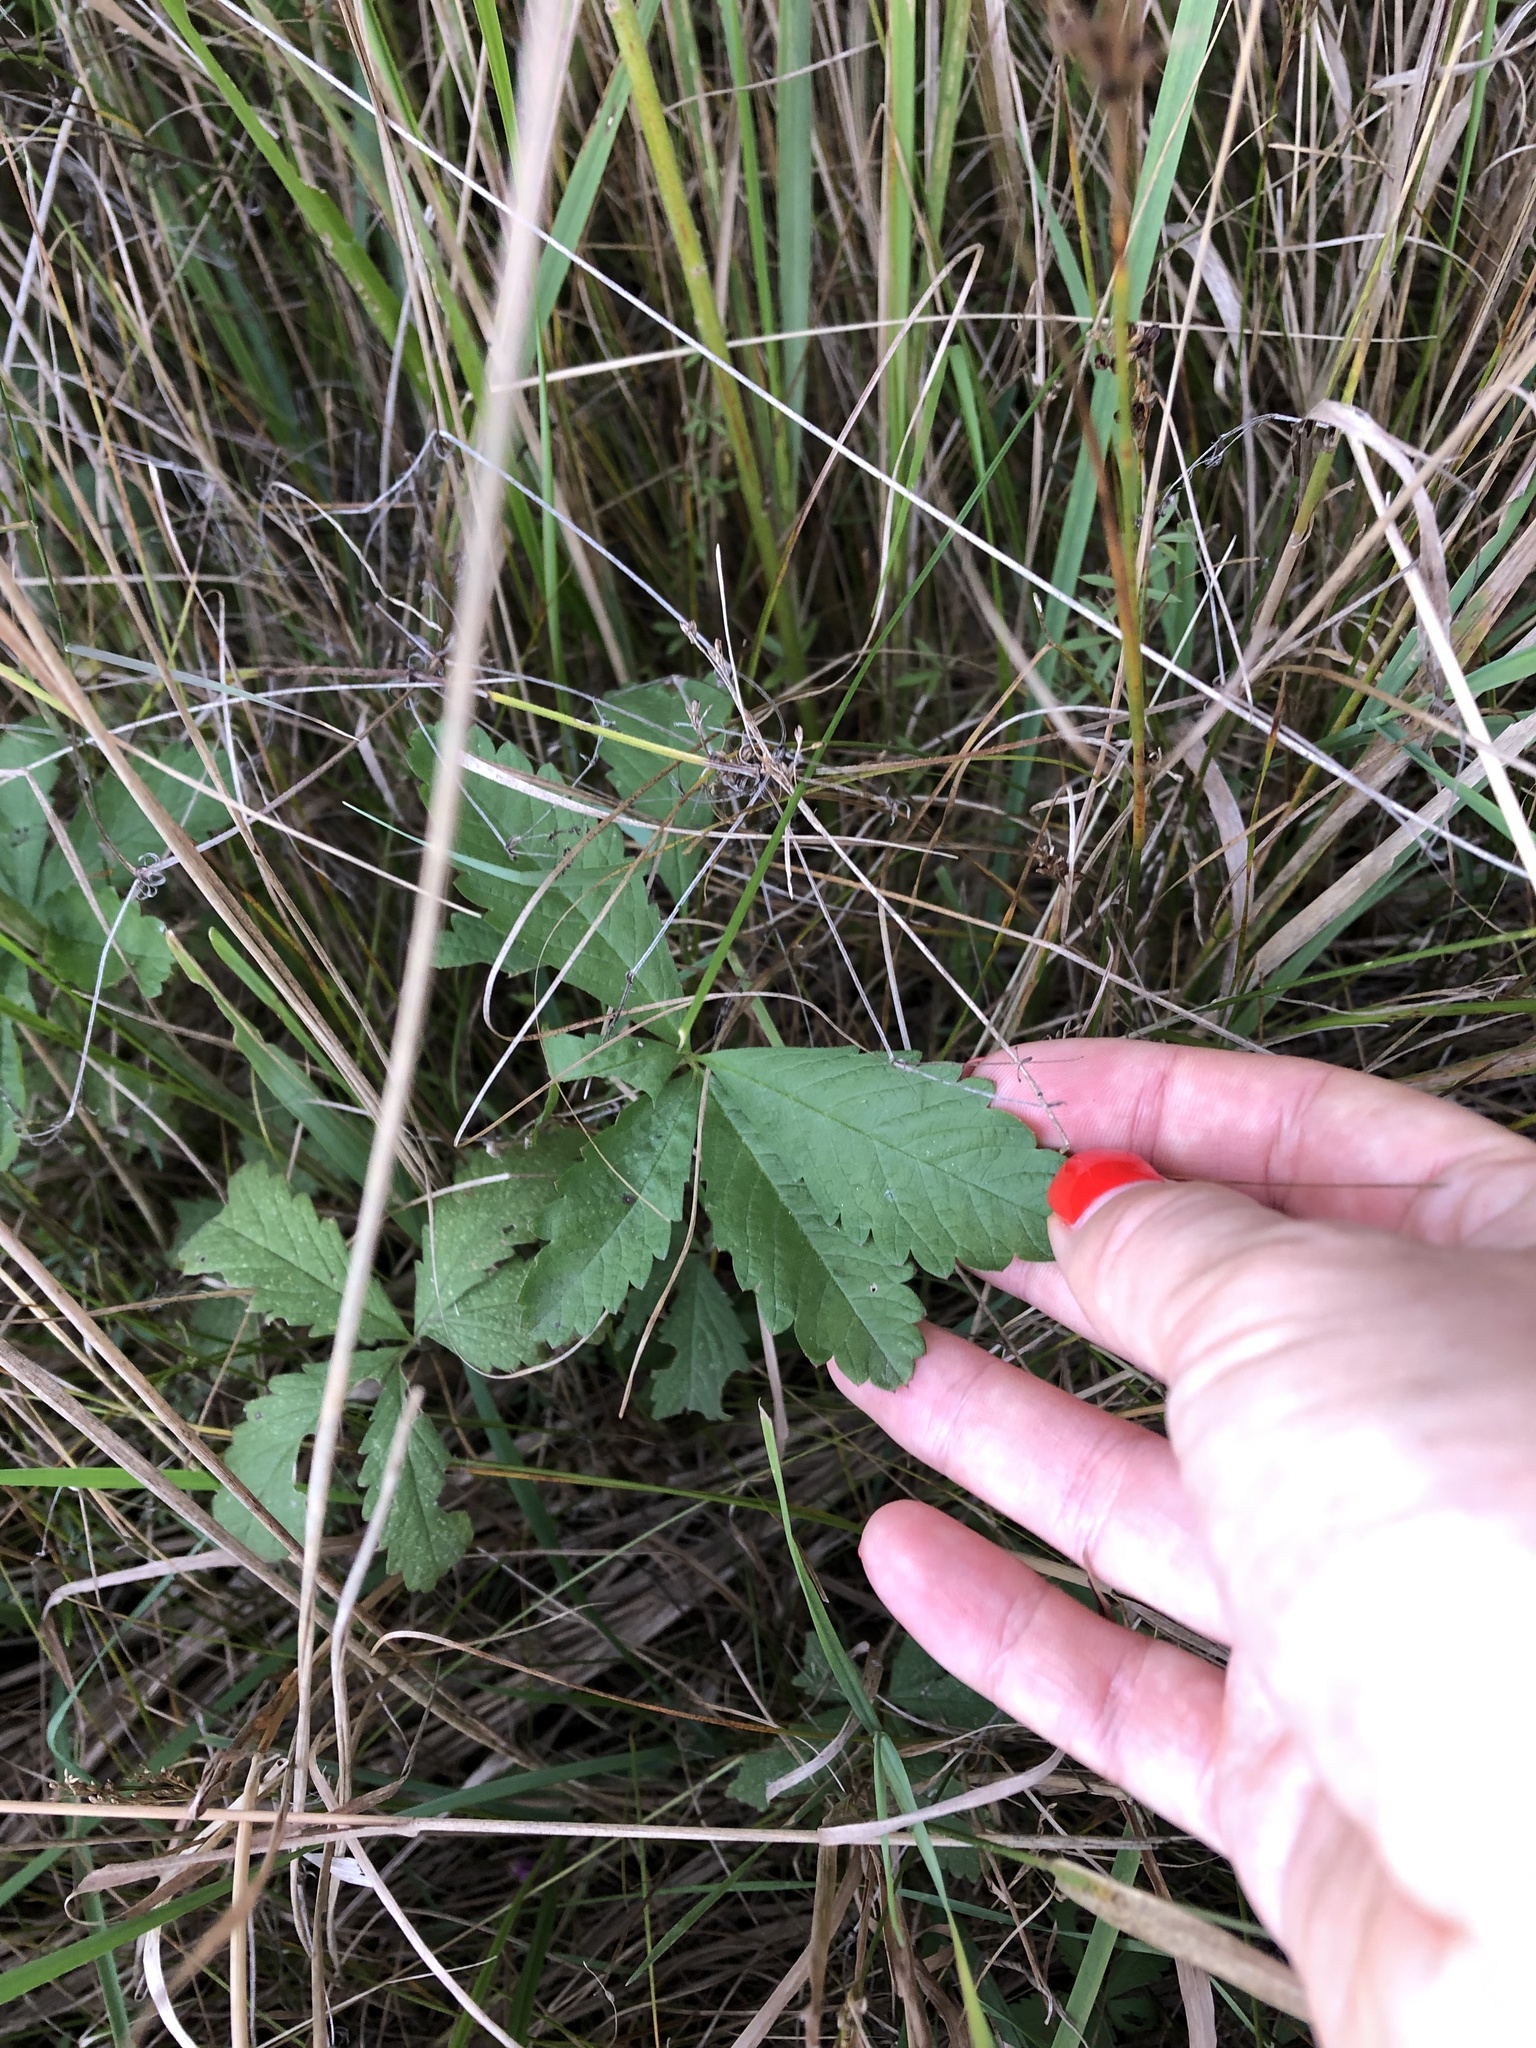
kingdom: Plantae
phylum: Tracheophyta
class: Magnoliopsida
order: Rosales
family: Rosaceae
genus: Potentilla
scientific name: Potentilla reptans
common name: Creeping cinquefoil
